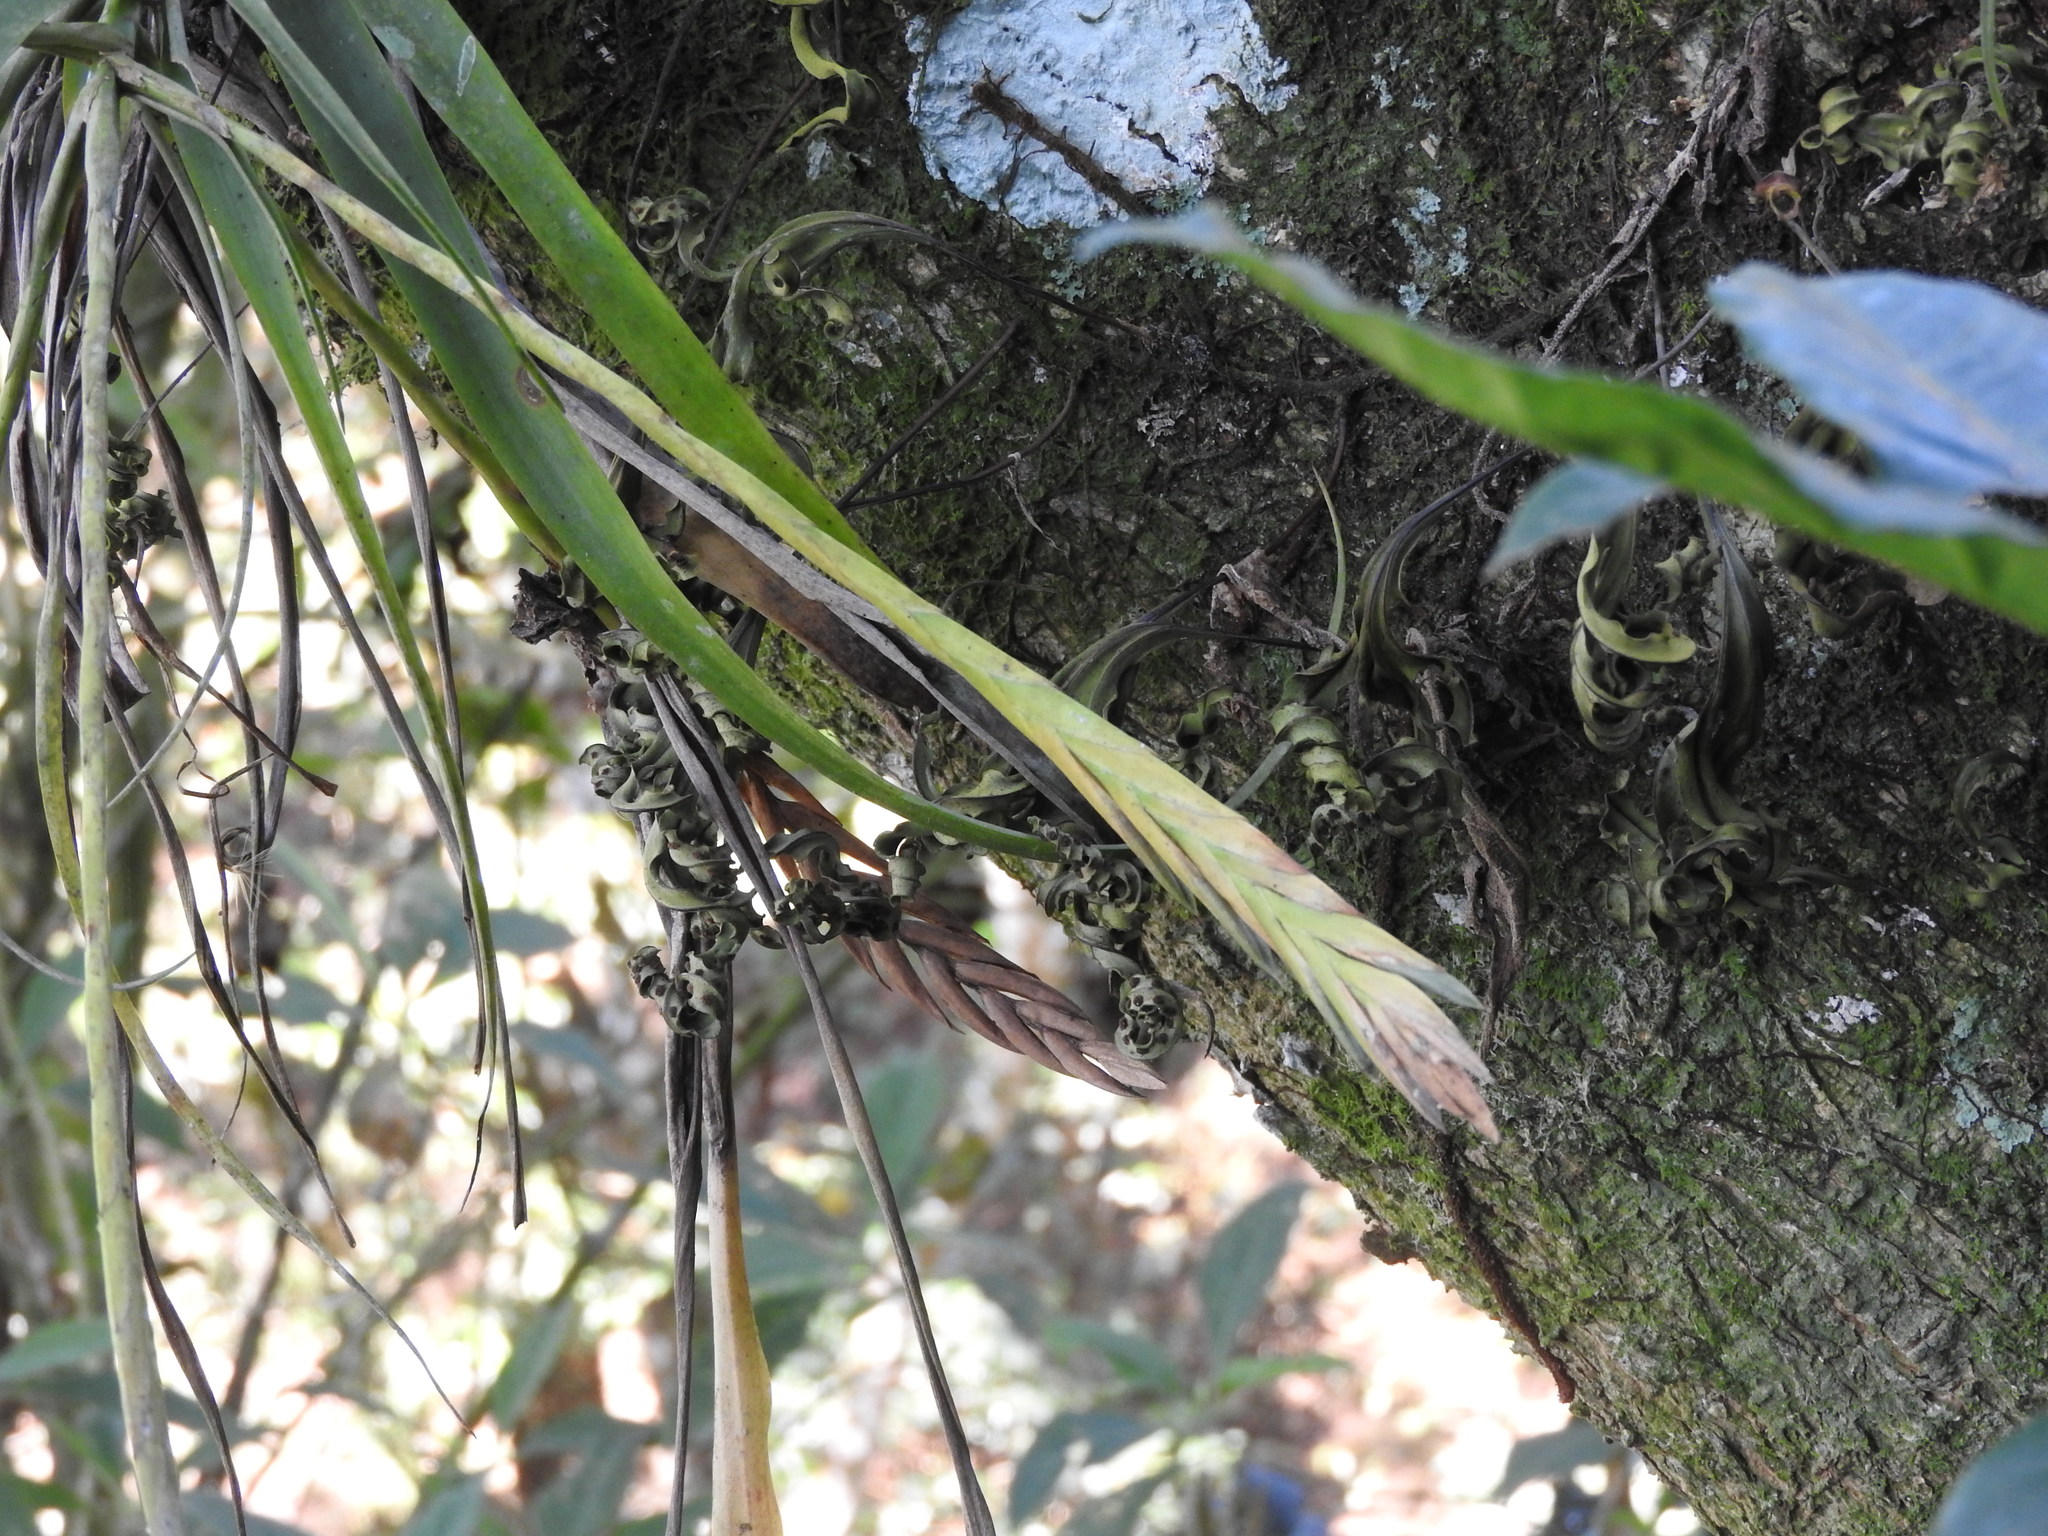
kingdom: Plantae
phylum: Tracheophyta
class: Liliopsida
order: Poales
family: Bromeliaceae
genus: Tillandsia
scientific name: Tillandsia flabellata
